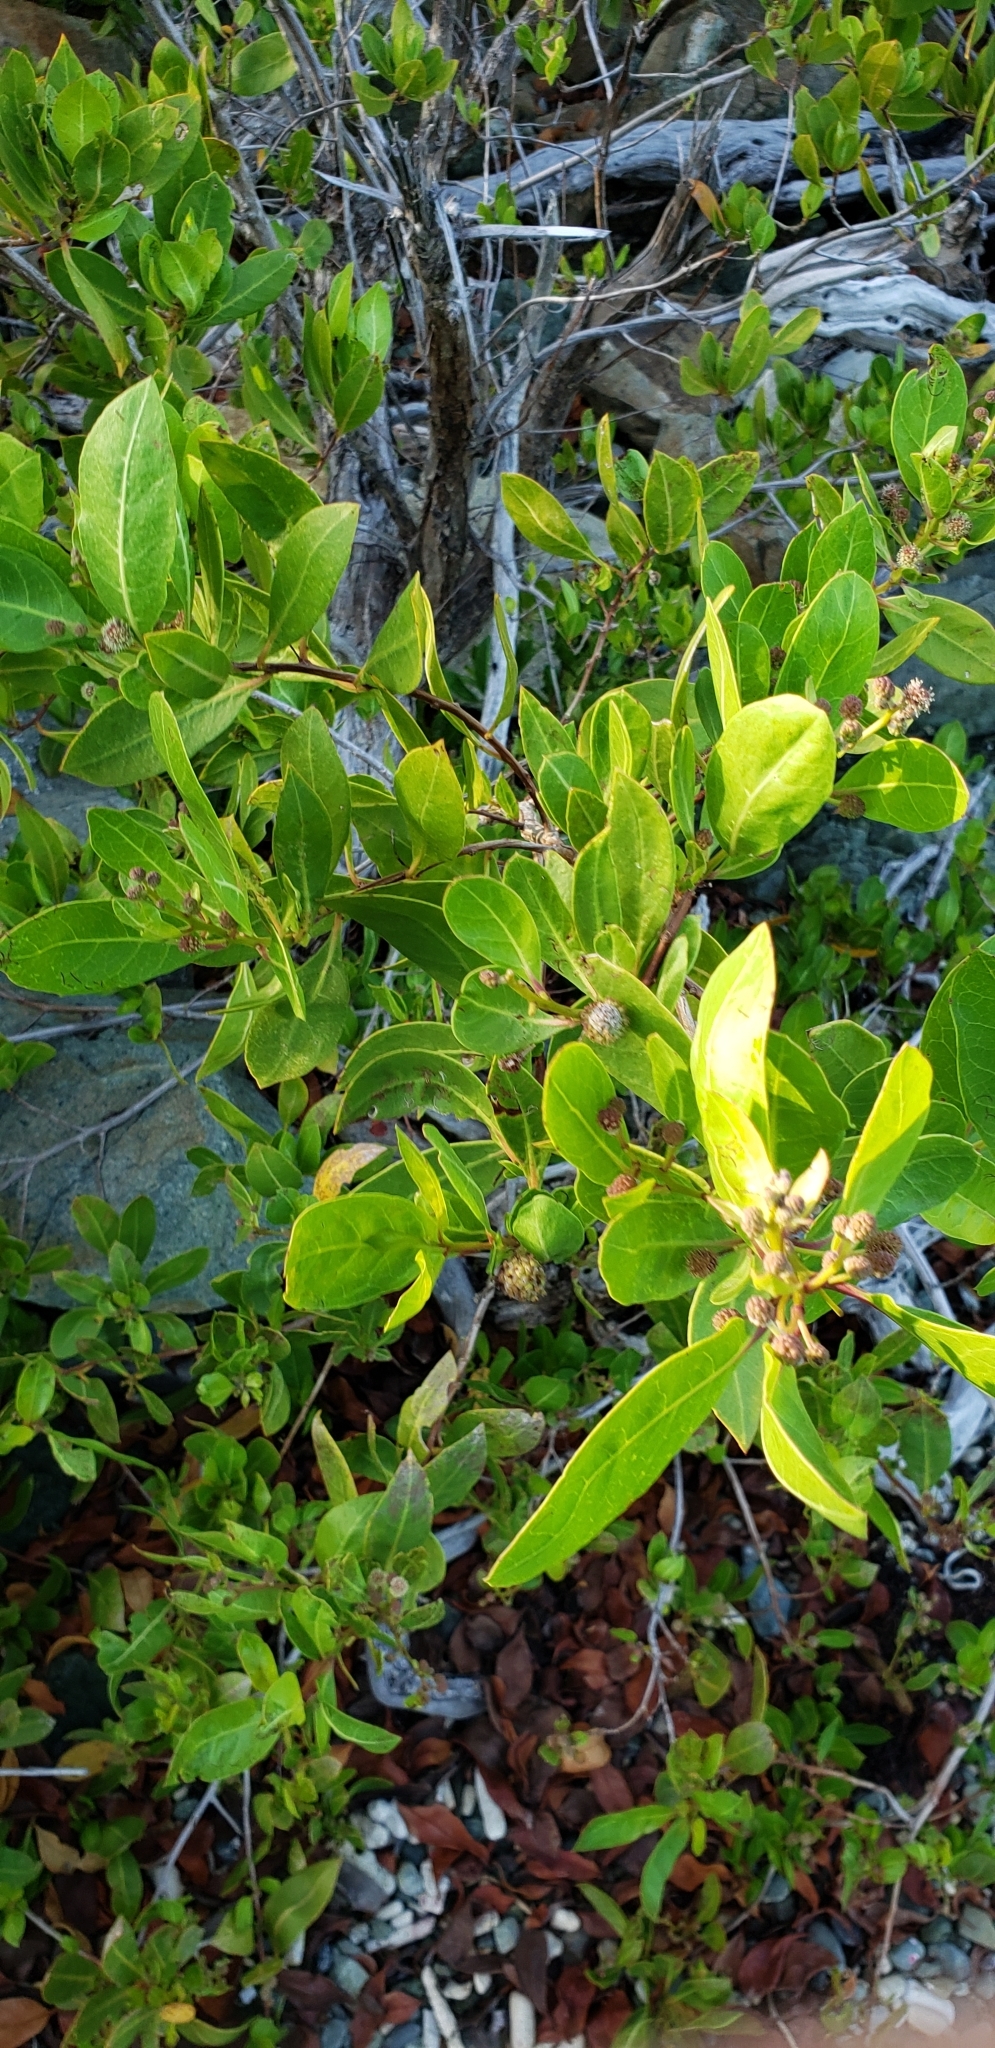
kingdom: Plantae
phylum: Tracheophyta
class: Magnoliopsida
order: Myrtales
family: Combretaceae
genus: Conocarpus
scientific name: Conocarpus erectus
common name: Button mangrove
